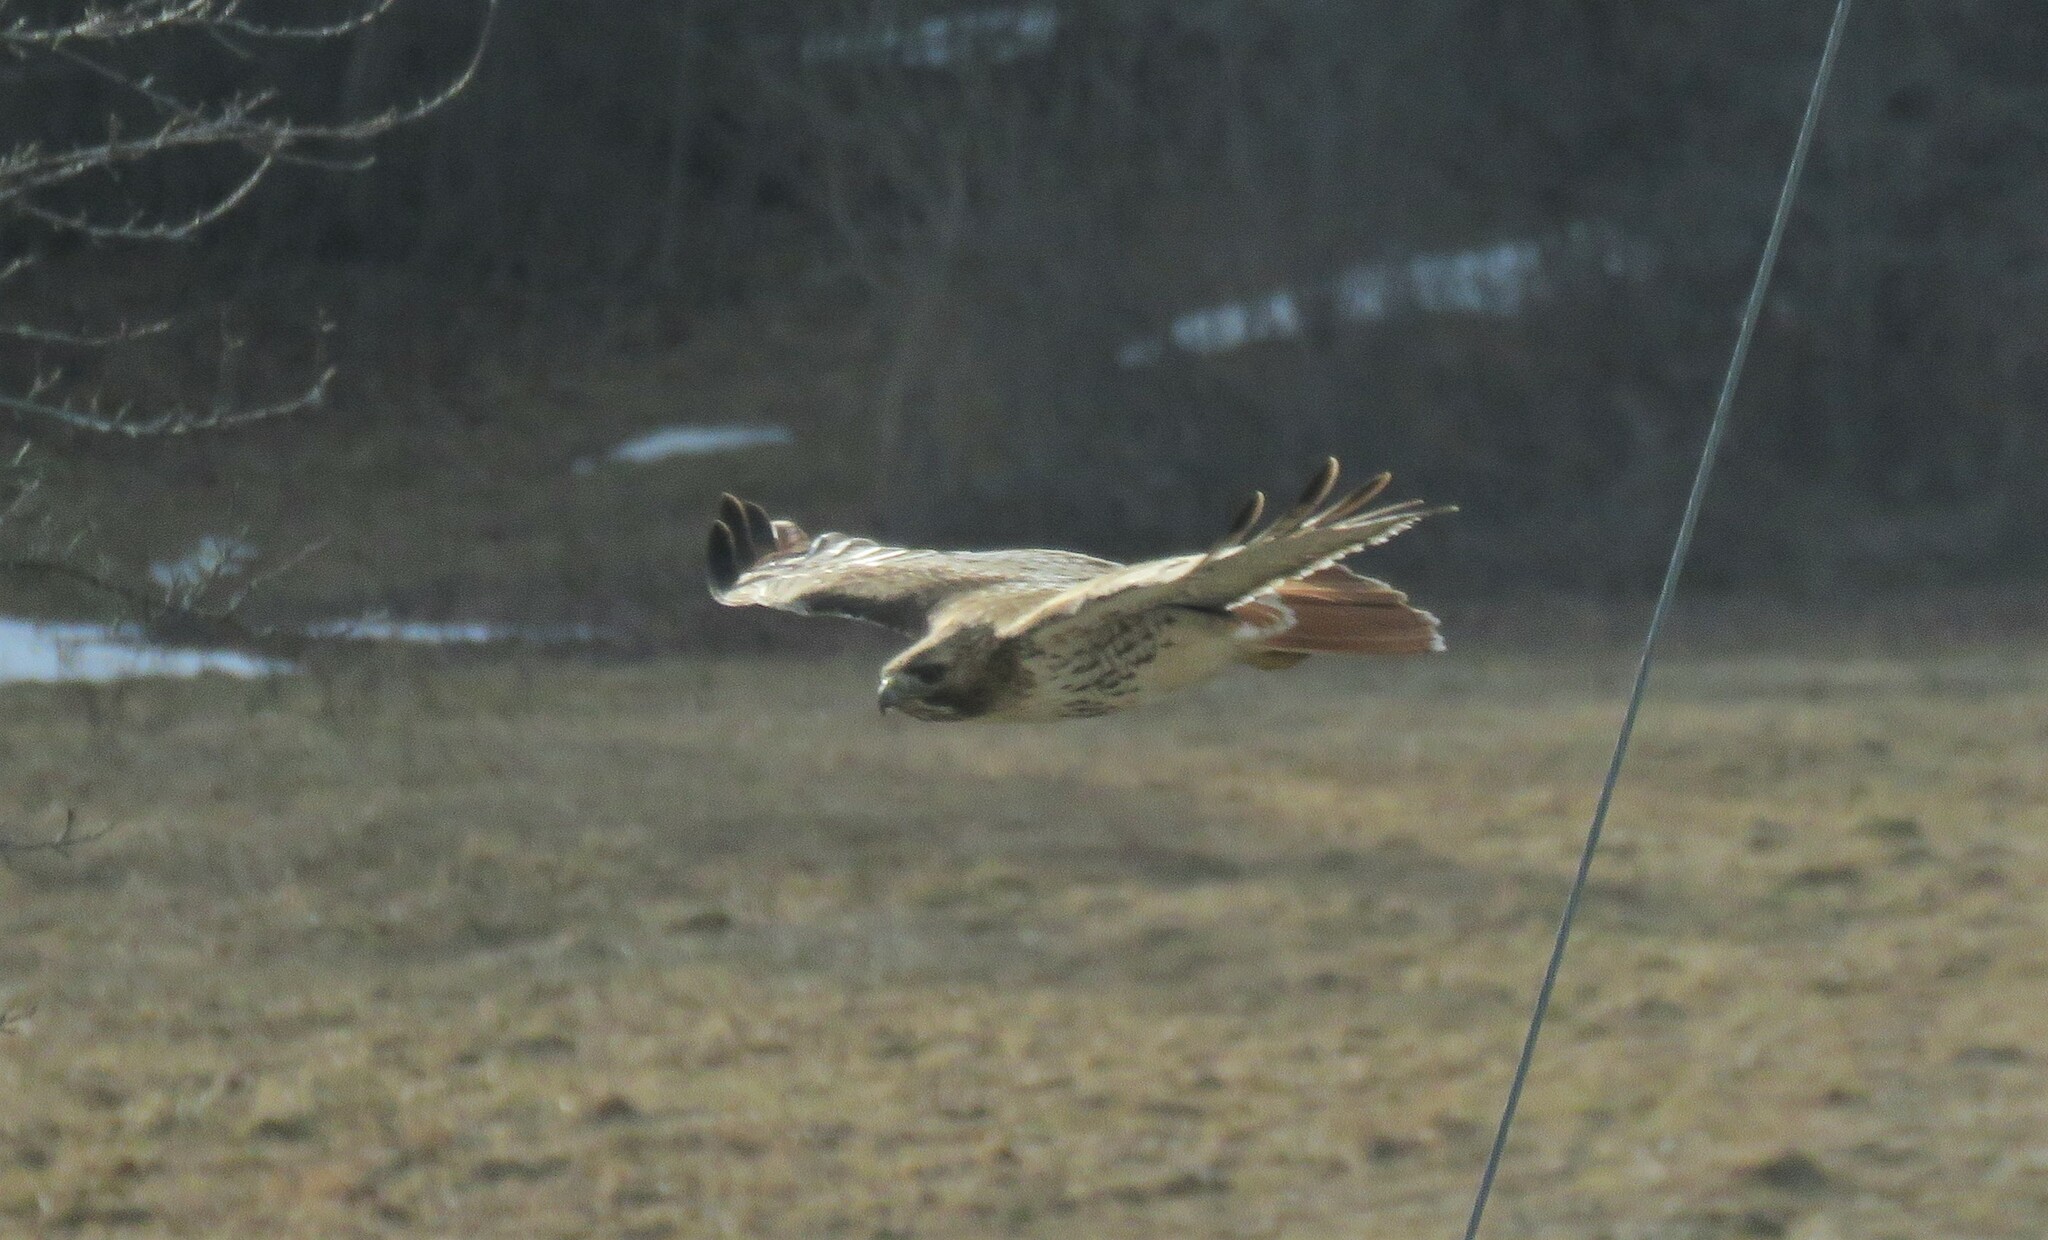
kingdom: Animalia
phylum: Chordata
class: Aves
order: Accipitriformes
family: Accipitridae
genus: Buteo
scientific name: Buteo jamaicensis
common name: Red-tailed hawk
